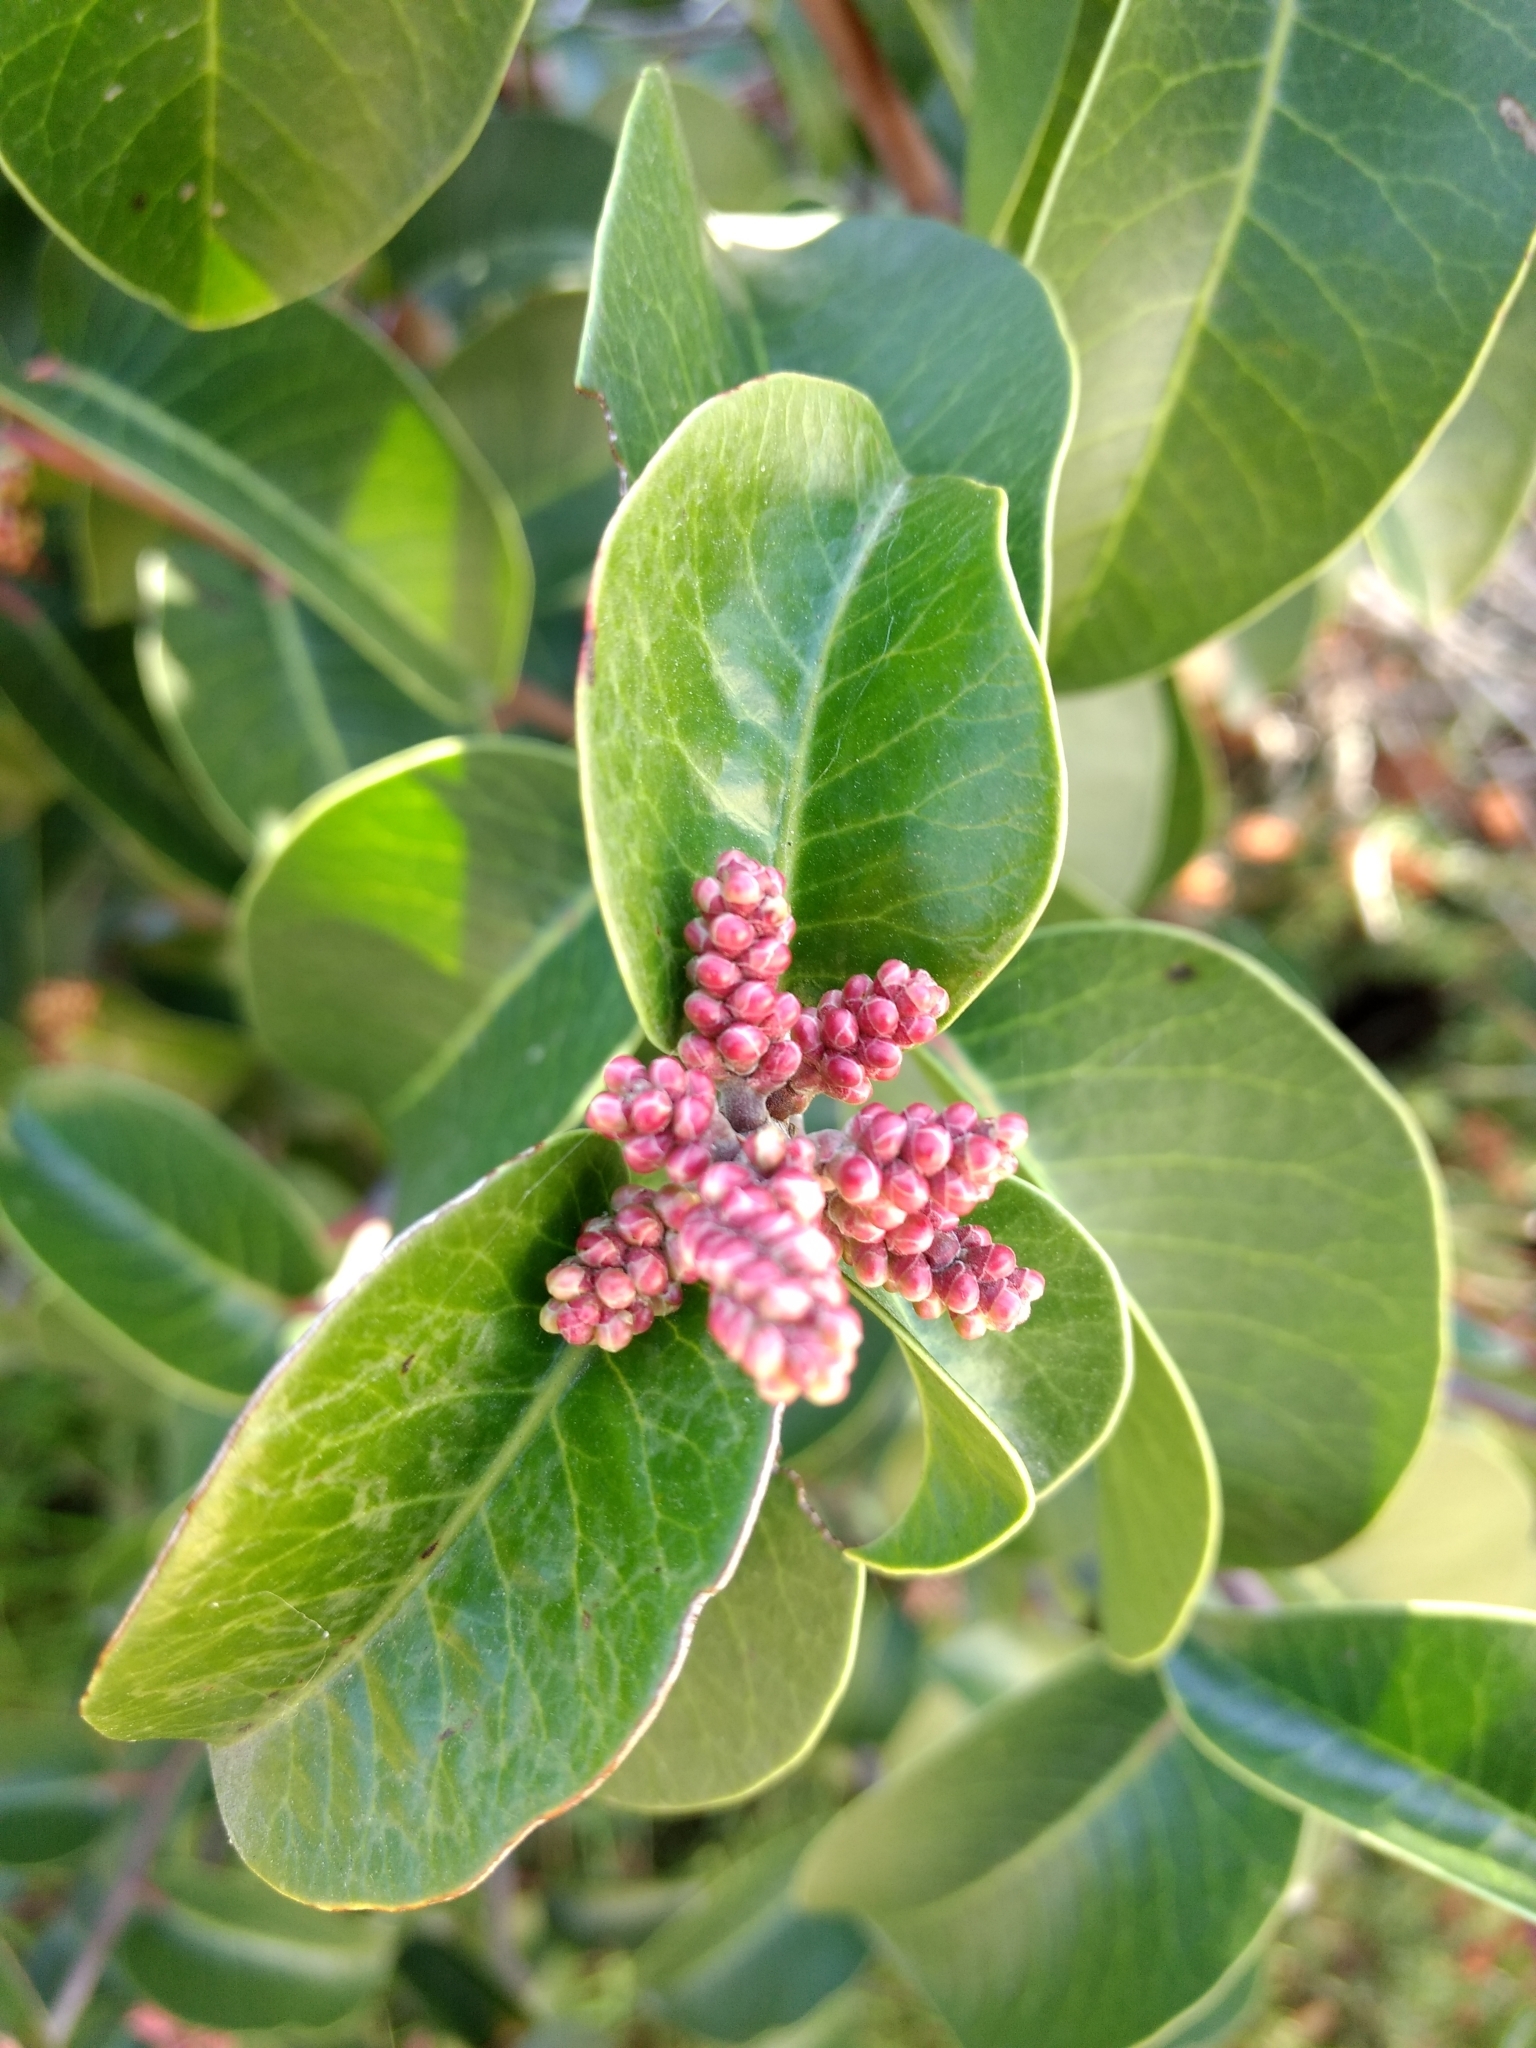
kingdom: Plantae
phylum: Tracheophyta
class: Magnoliopsida
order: Sapindales
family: Anacardiaceae
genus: Rhus
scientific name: Rhus ovata
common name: Sugar sumac
